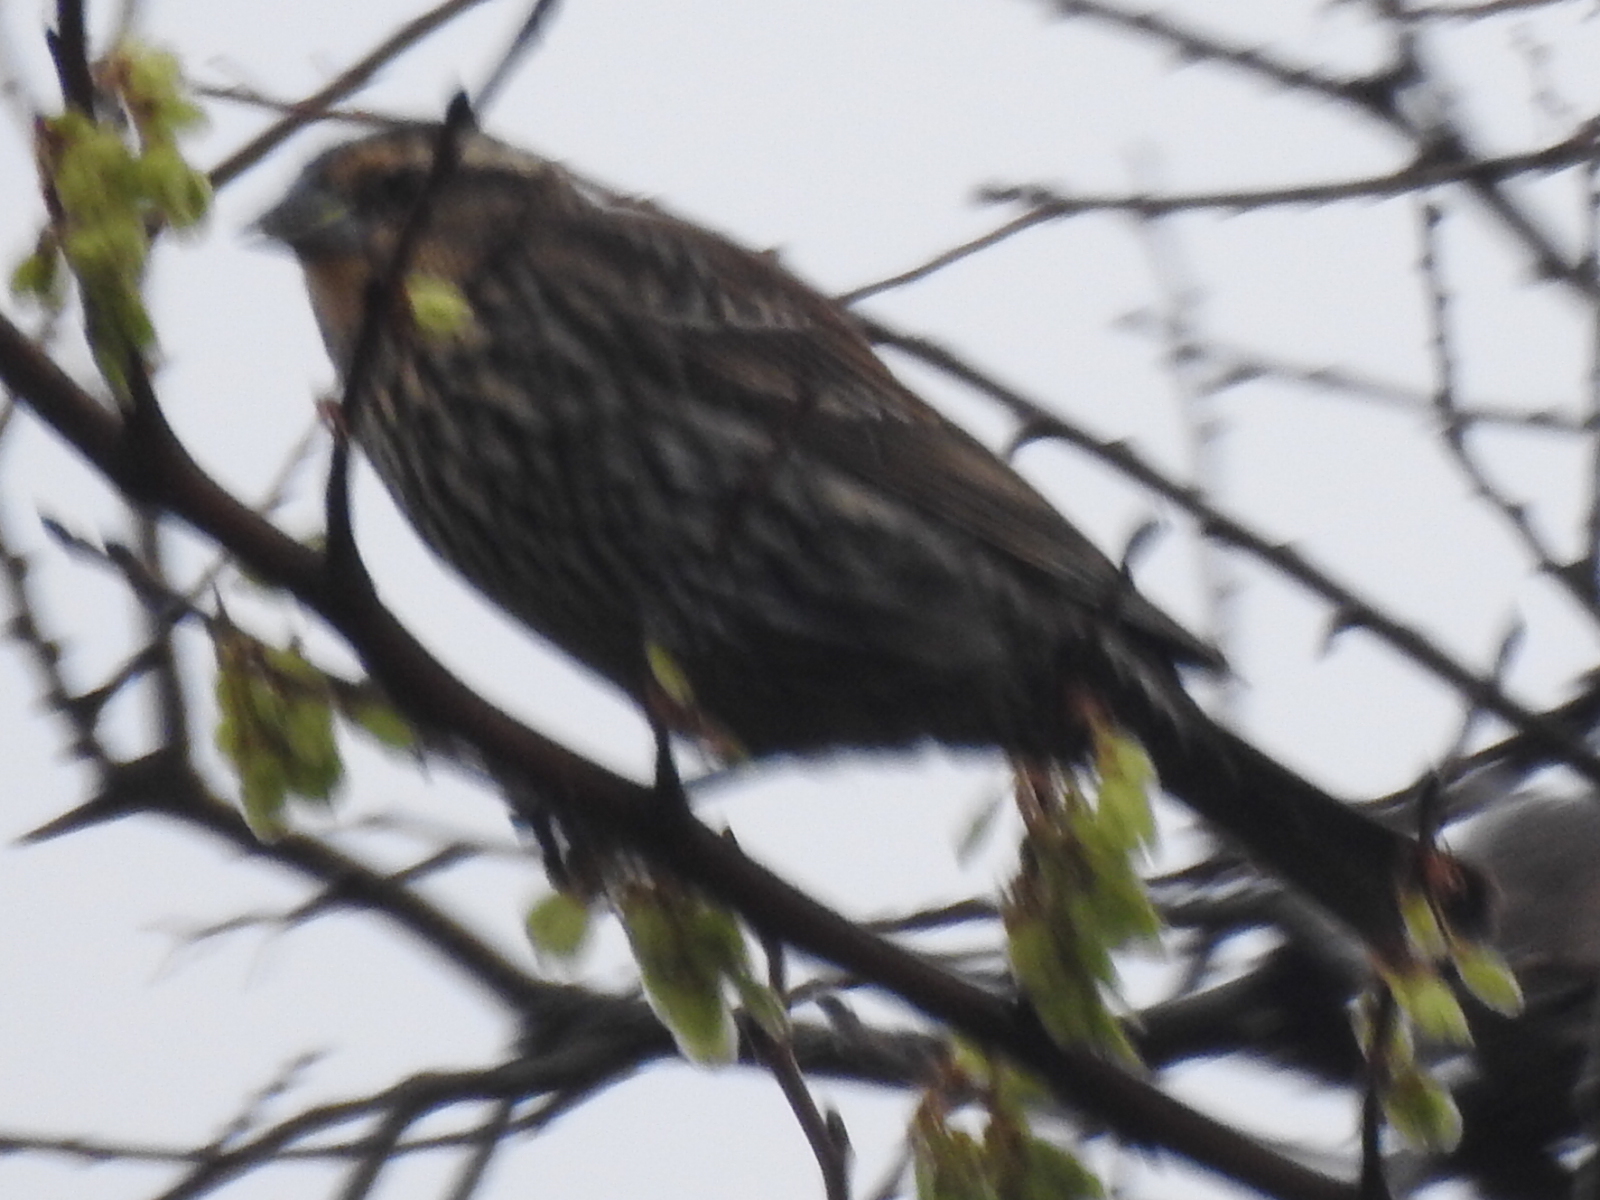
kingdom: Animalia
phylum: Chordata
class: Aves
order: Passeriformes
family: Icteridae
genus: Agelaius
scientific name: Agelaius phoeniceus
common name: Red-winged blackbird
